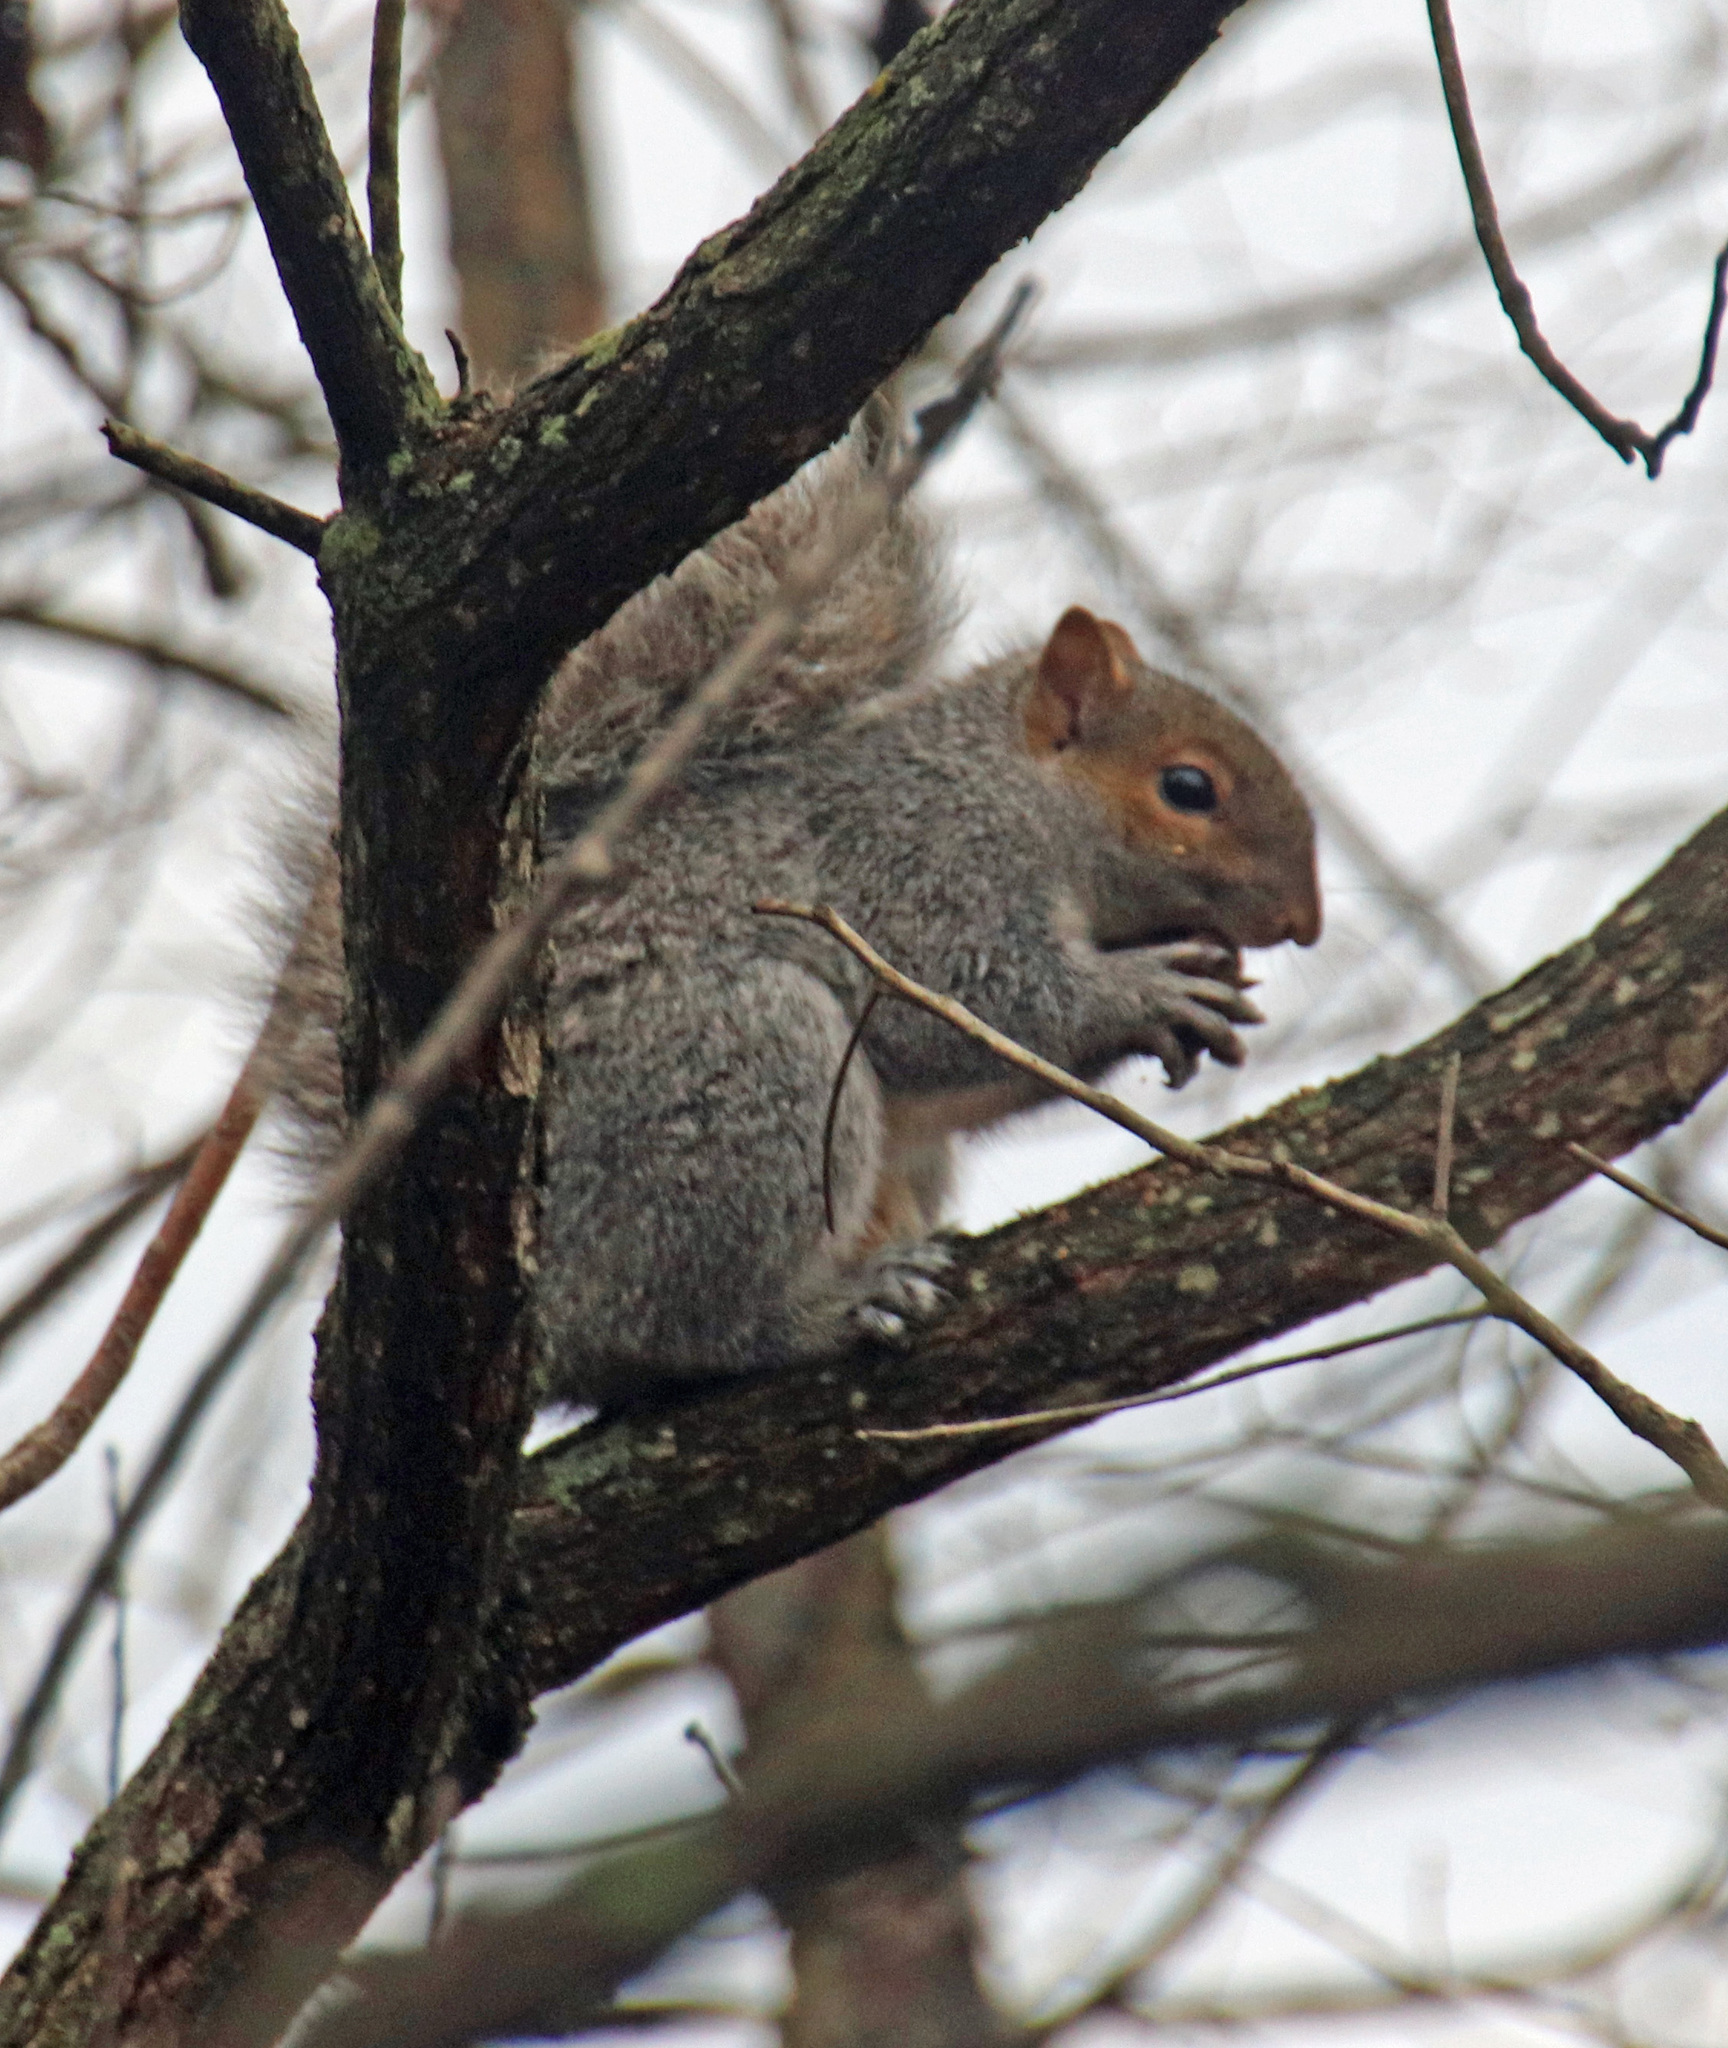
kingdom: Animalia
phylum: Chordata
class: Mammalia
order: Rodentia
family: Sciuridae
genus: Sciurus
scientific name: Sciurus carolinensis
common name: Eastern gray squirrel
